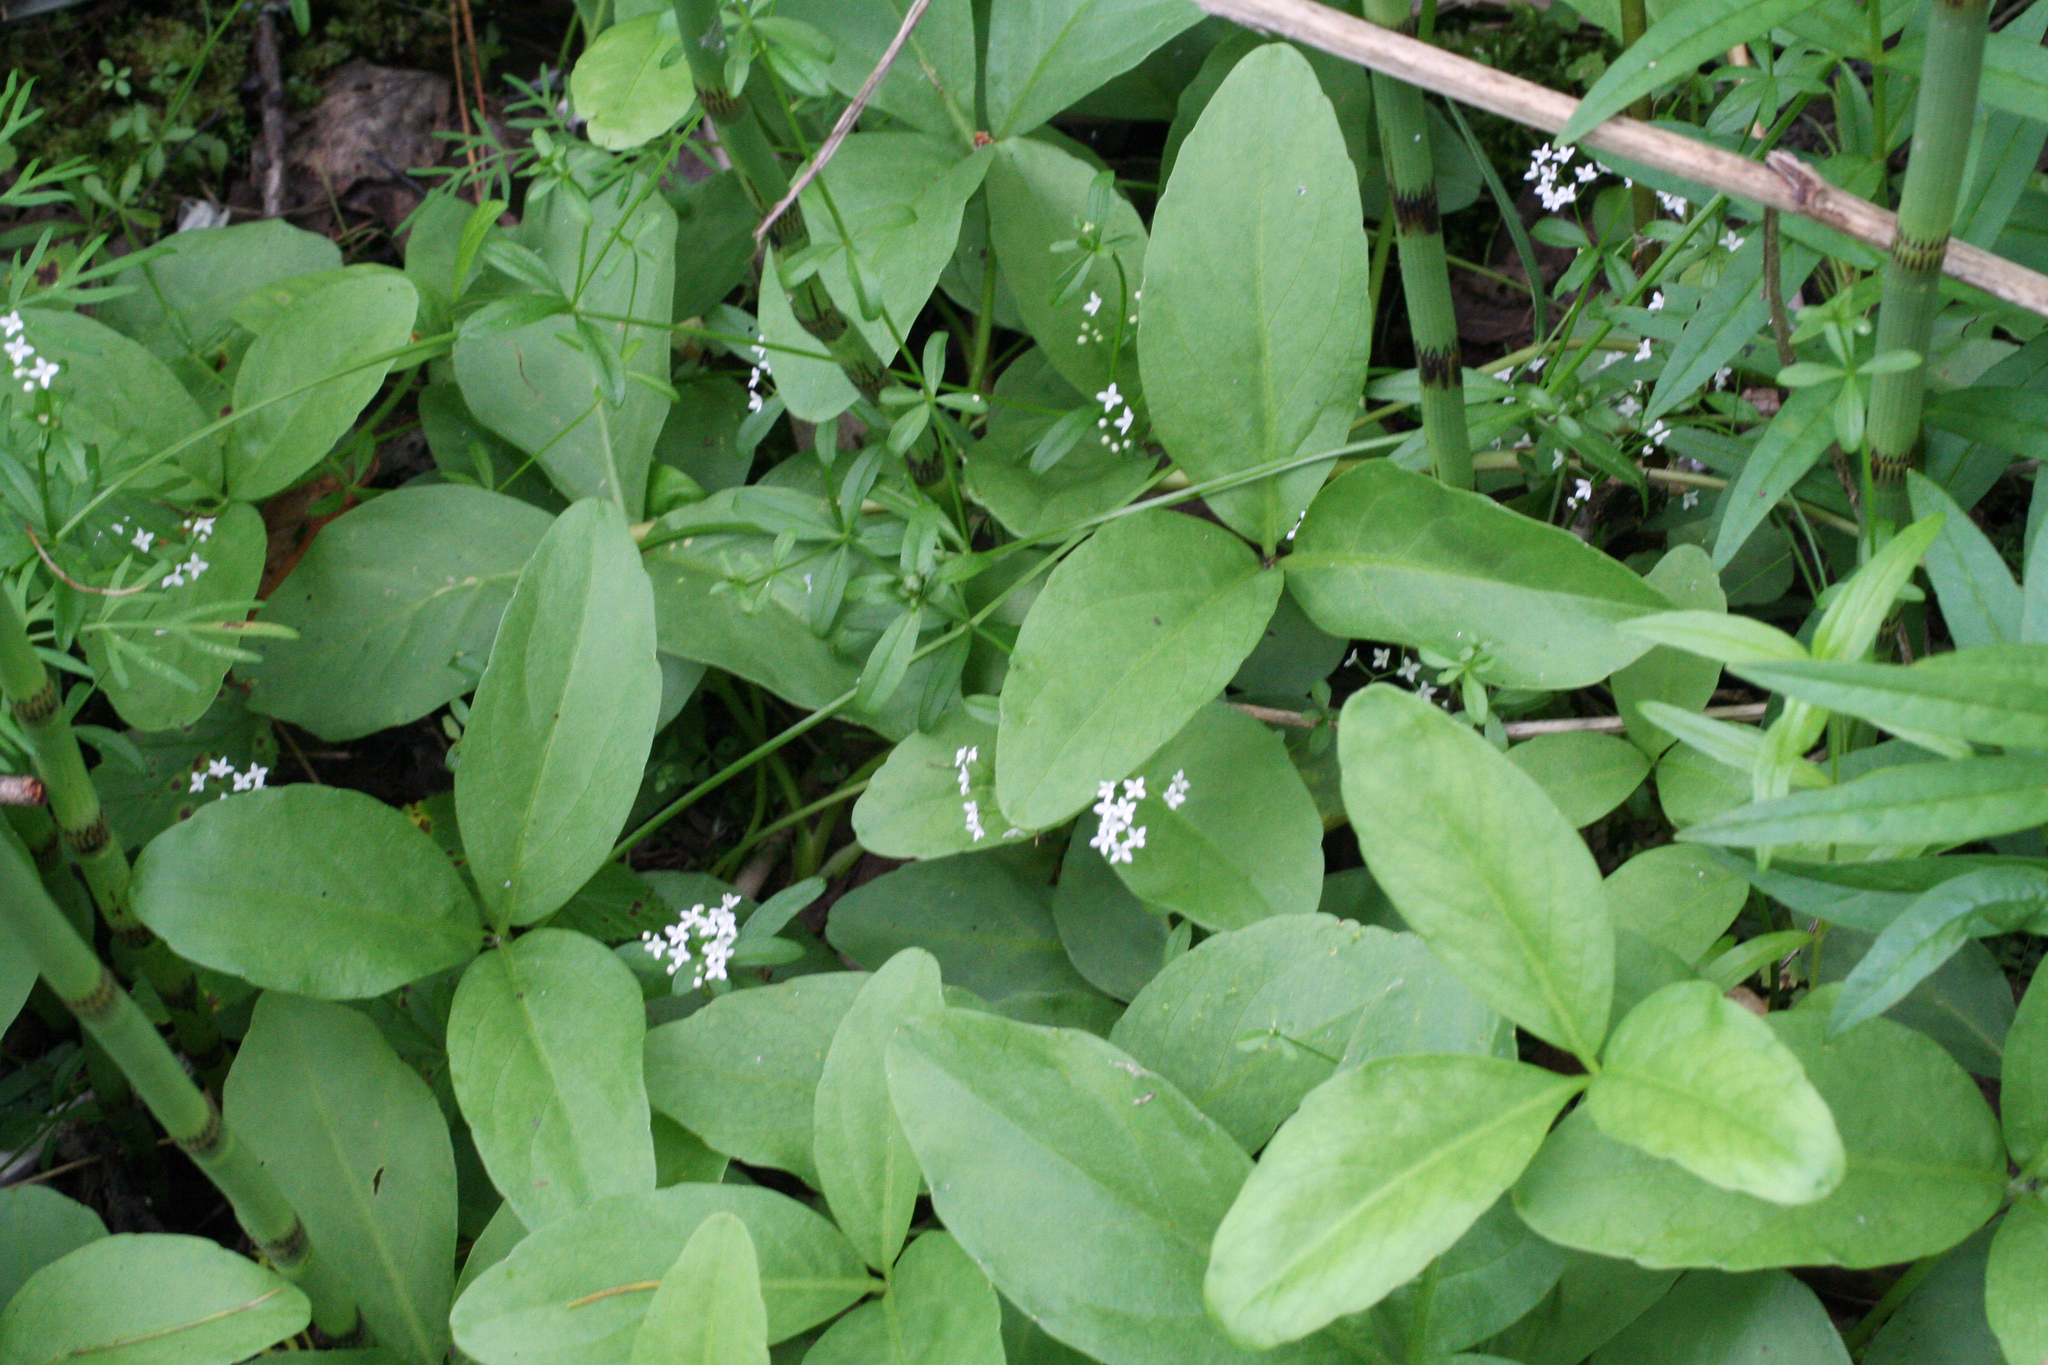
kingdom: Plantae
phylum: Tracheophyta
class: Magnoliopsida
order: Asterales
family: Menyanthaceae
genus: Menyanthes
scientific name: Menyanthes trifoliata
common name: Bogbean
